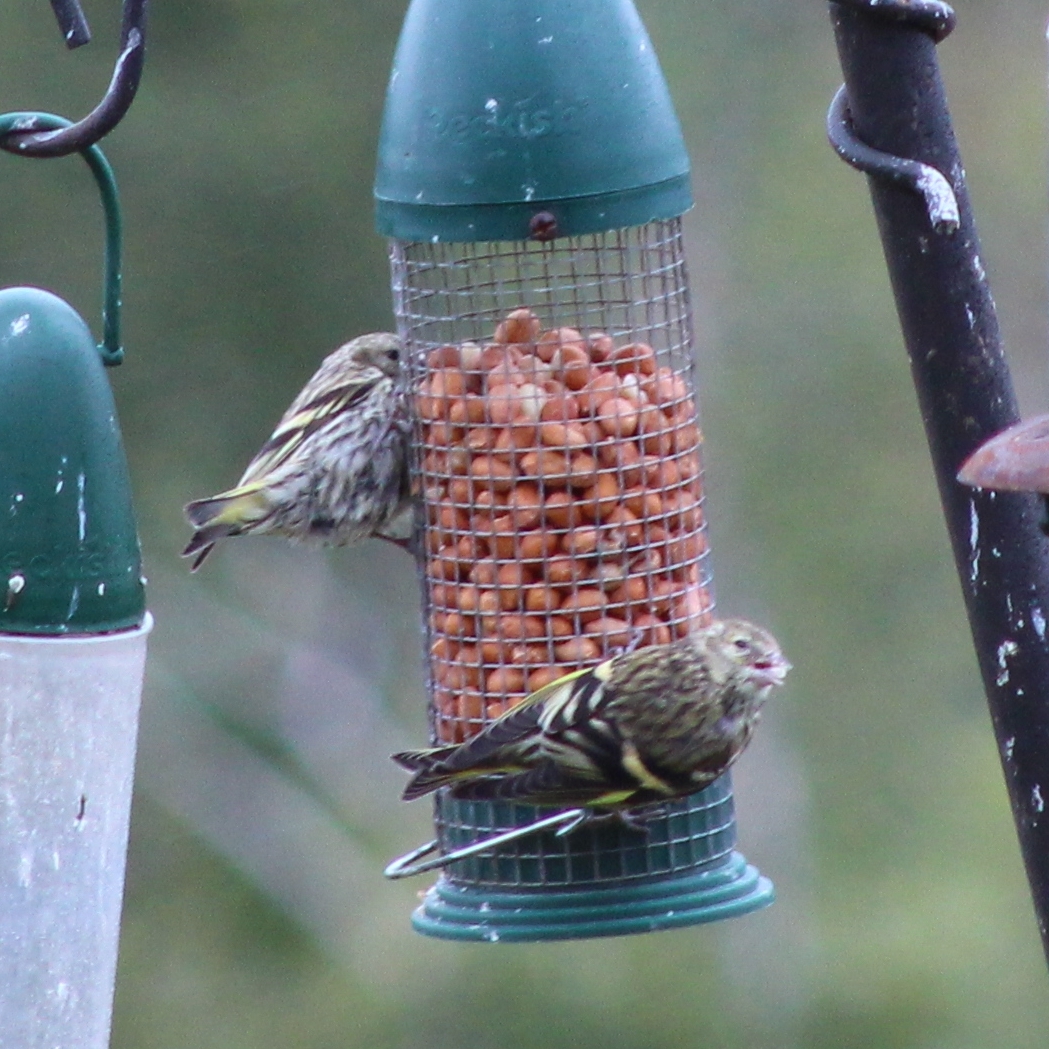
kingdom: Animalia
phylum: Chordata
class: Aves
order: Passeriformes
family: Fringillidae
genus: Spinus
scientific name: Spinus spinus
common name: Eurasian siskin
